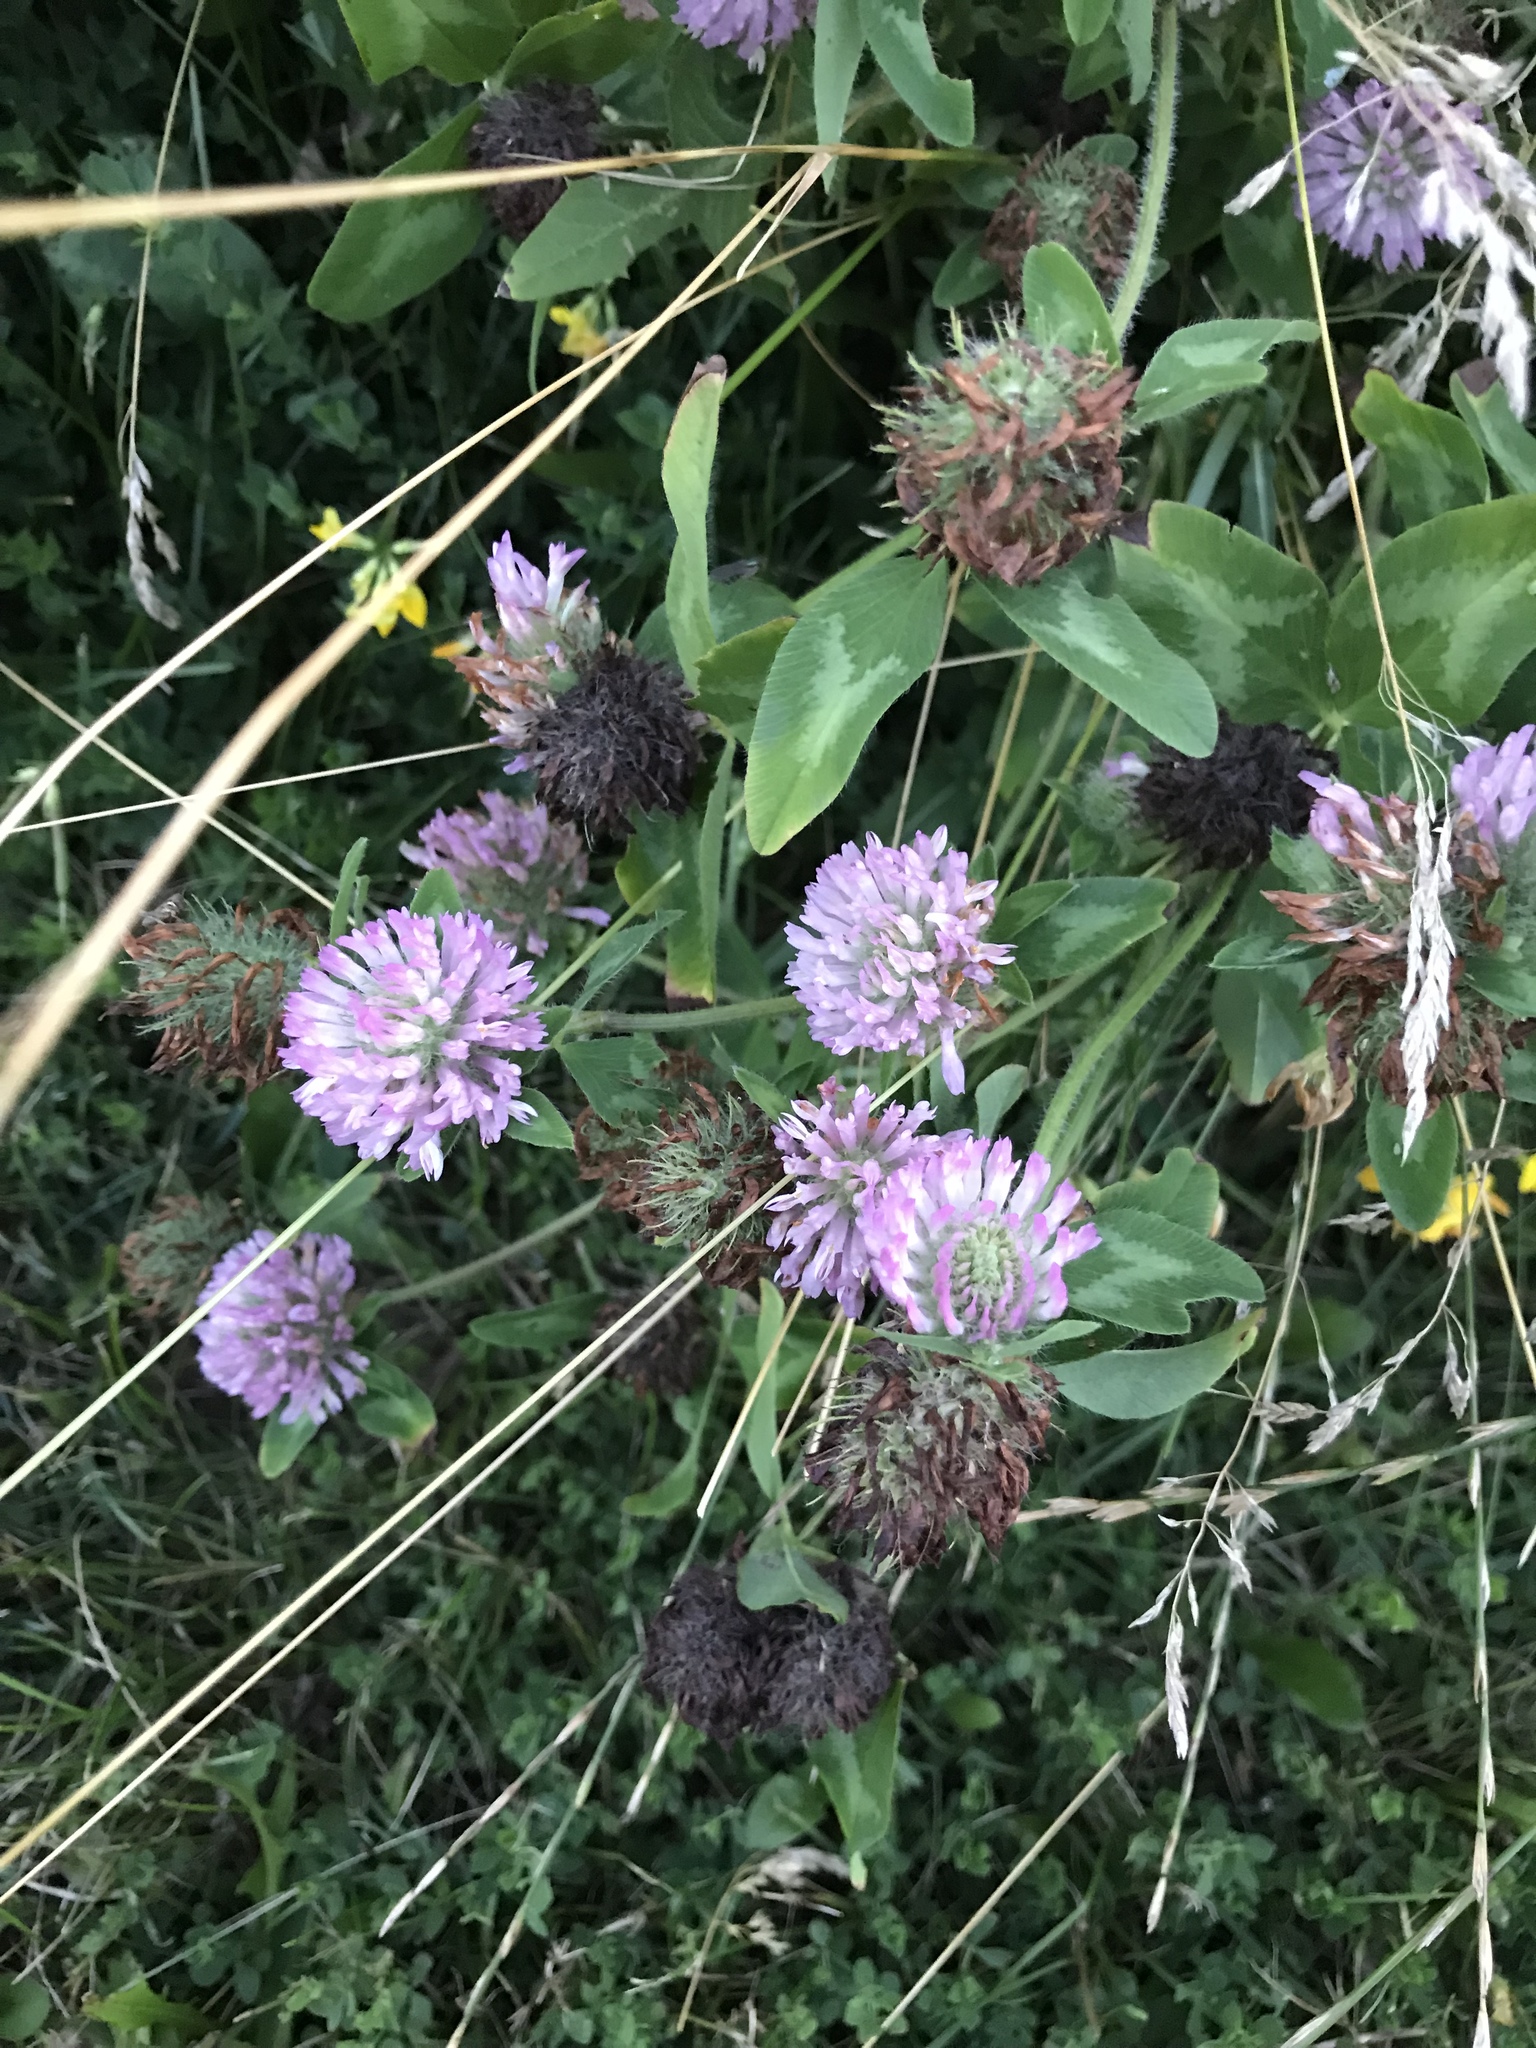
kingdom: Plantae
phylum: Tracheophyta
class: Magnoliopsida
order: Fabales
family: Fabaceae
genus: Trifolium
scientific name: Trifolium pratense
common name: Red clover
